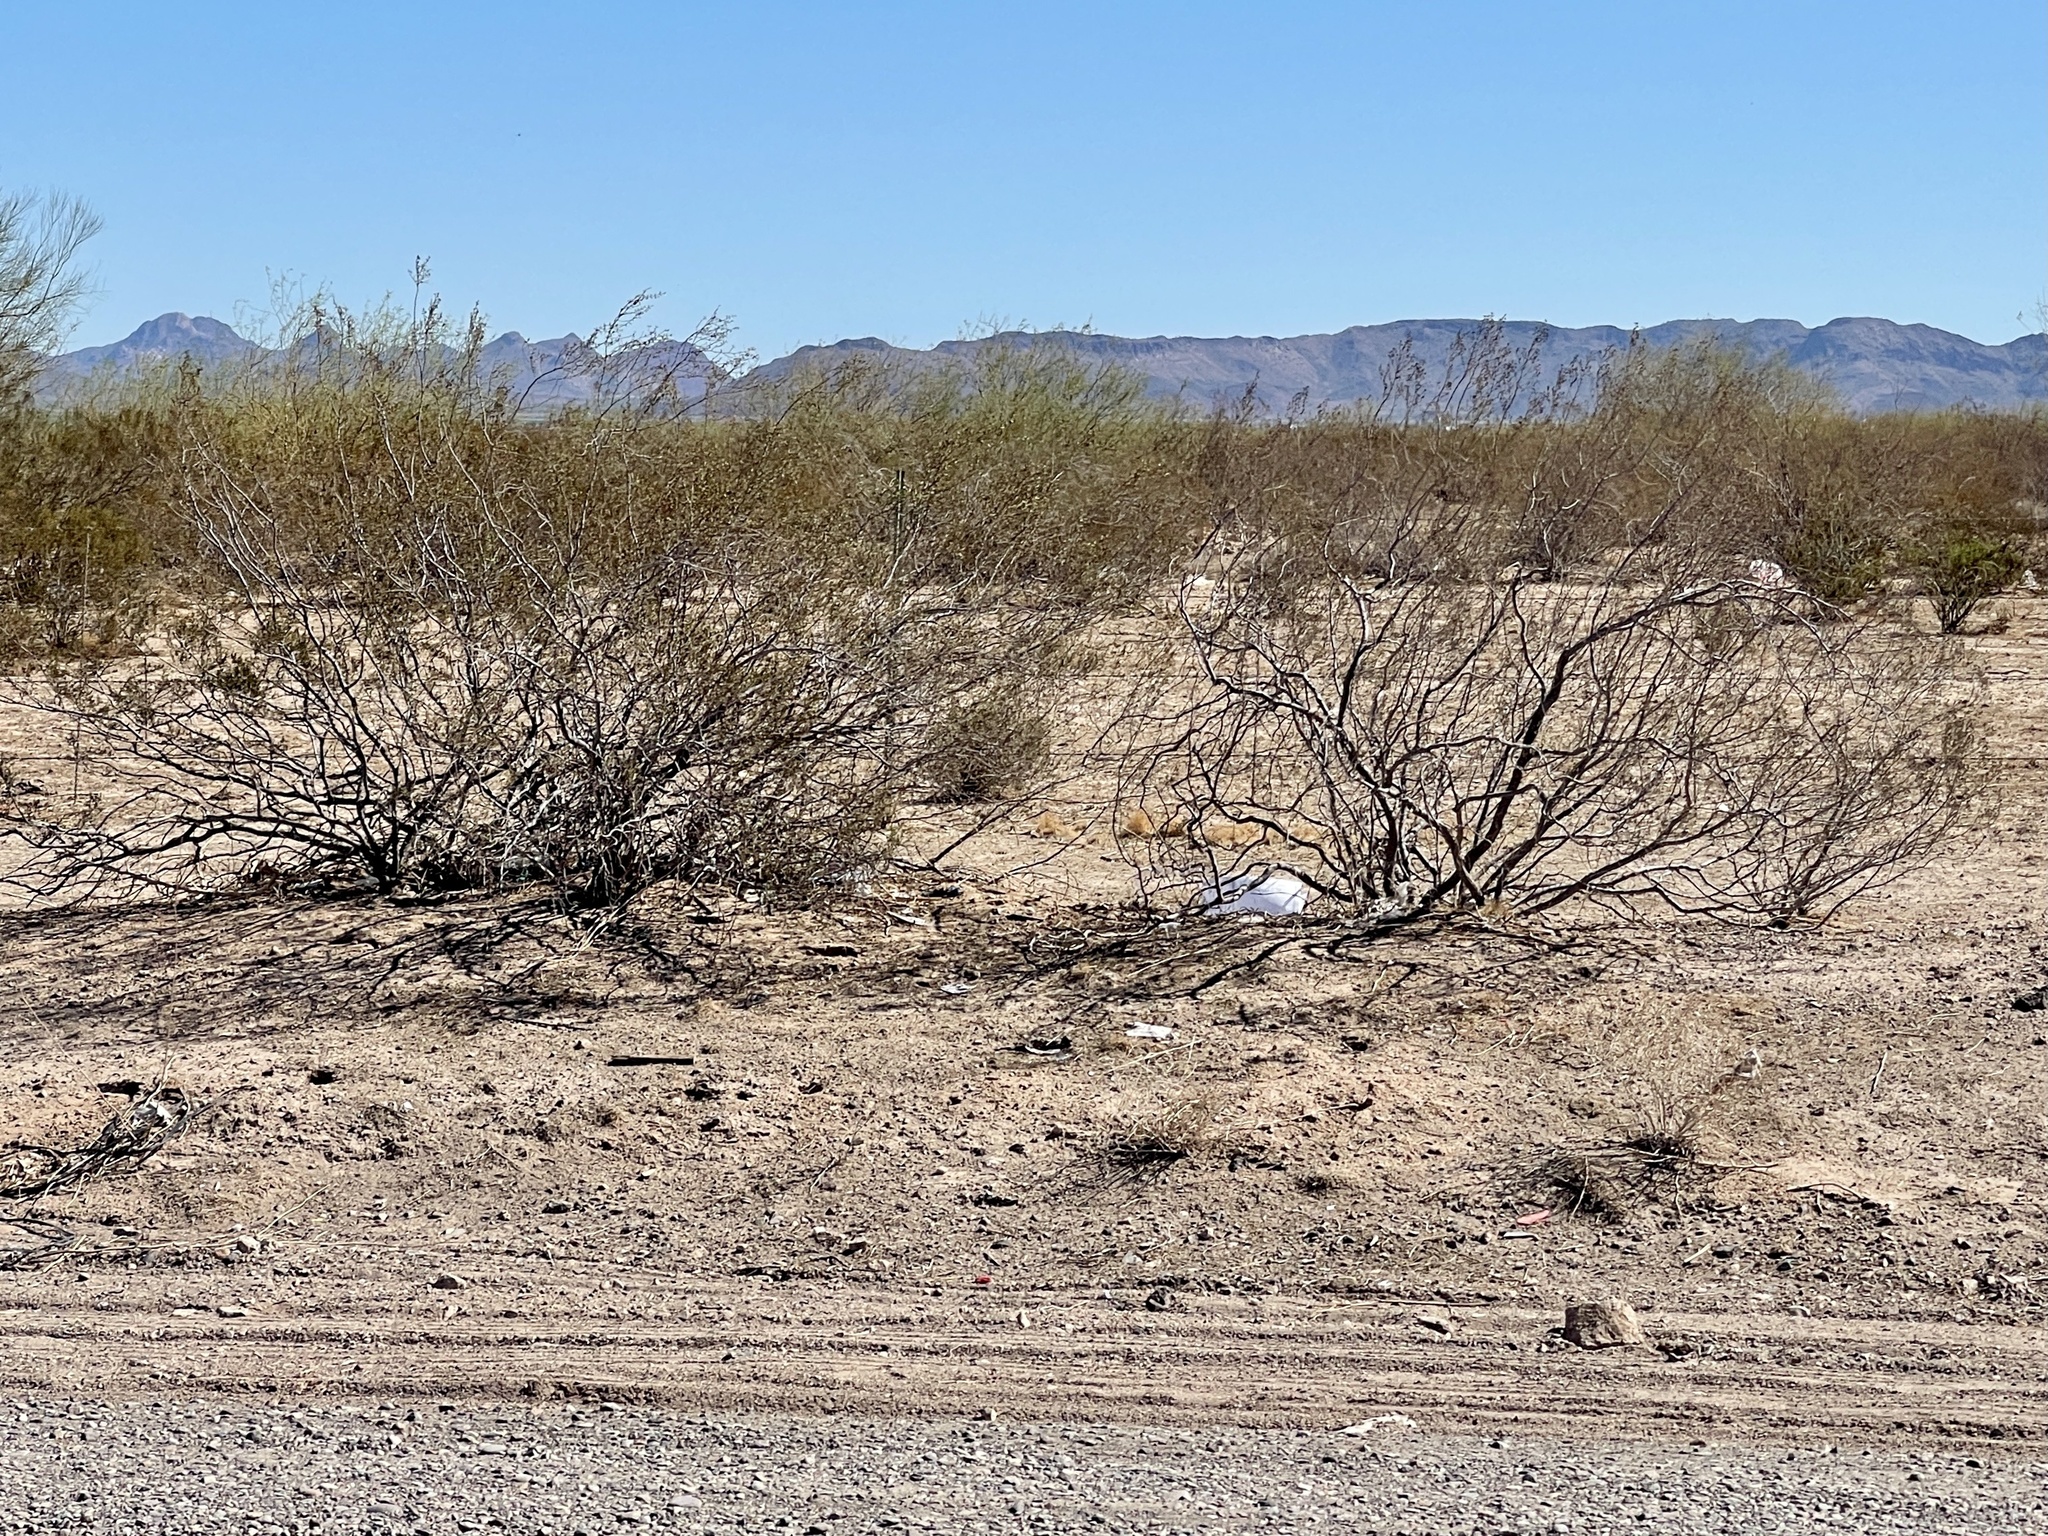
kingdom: Plantae
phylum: Tracheophyta
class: Magnoliopsida
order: Zygophyllales
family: Zygophyllaceae
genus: Larrea
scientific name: Larrea tridentata
